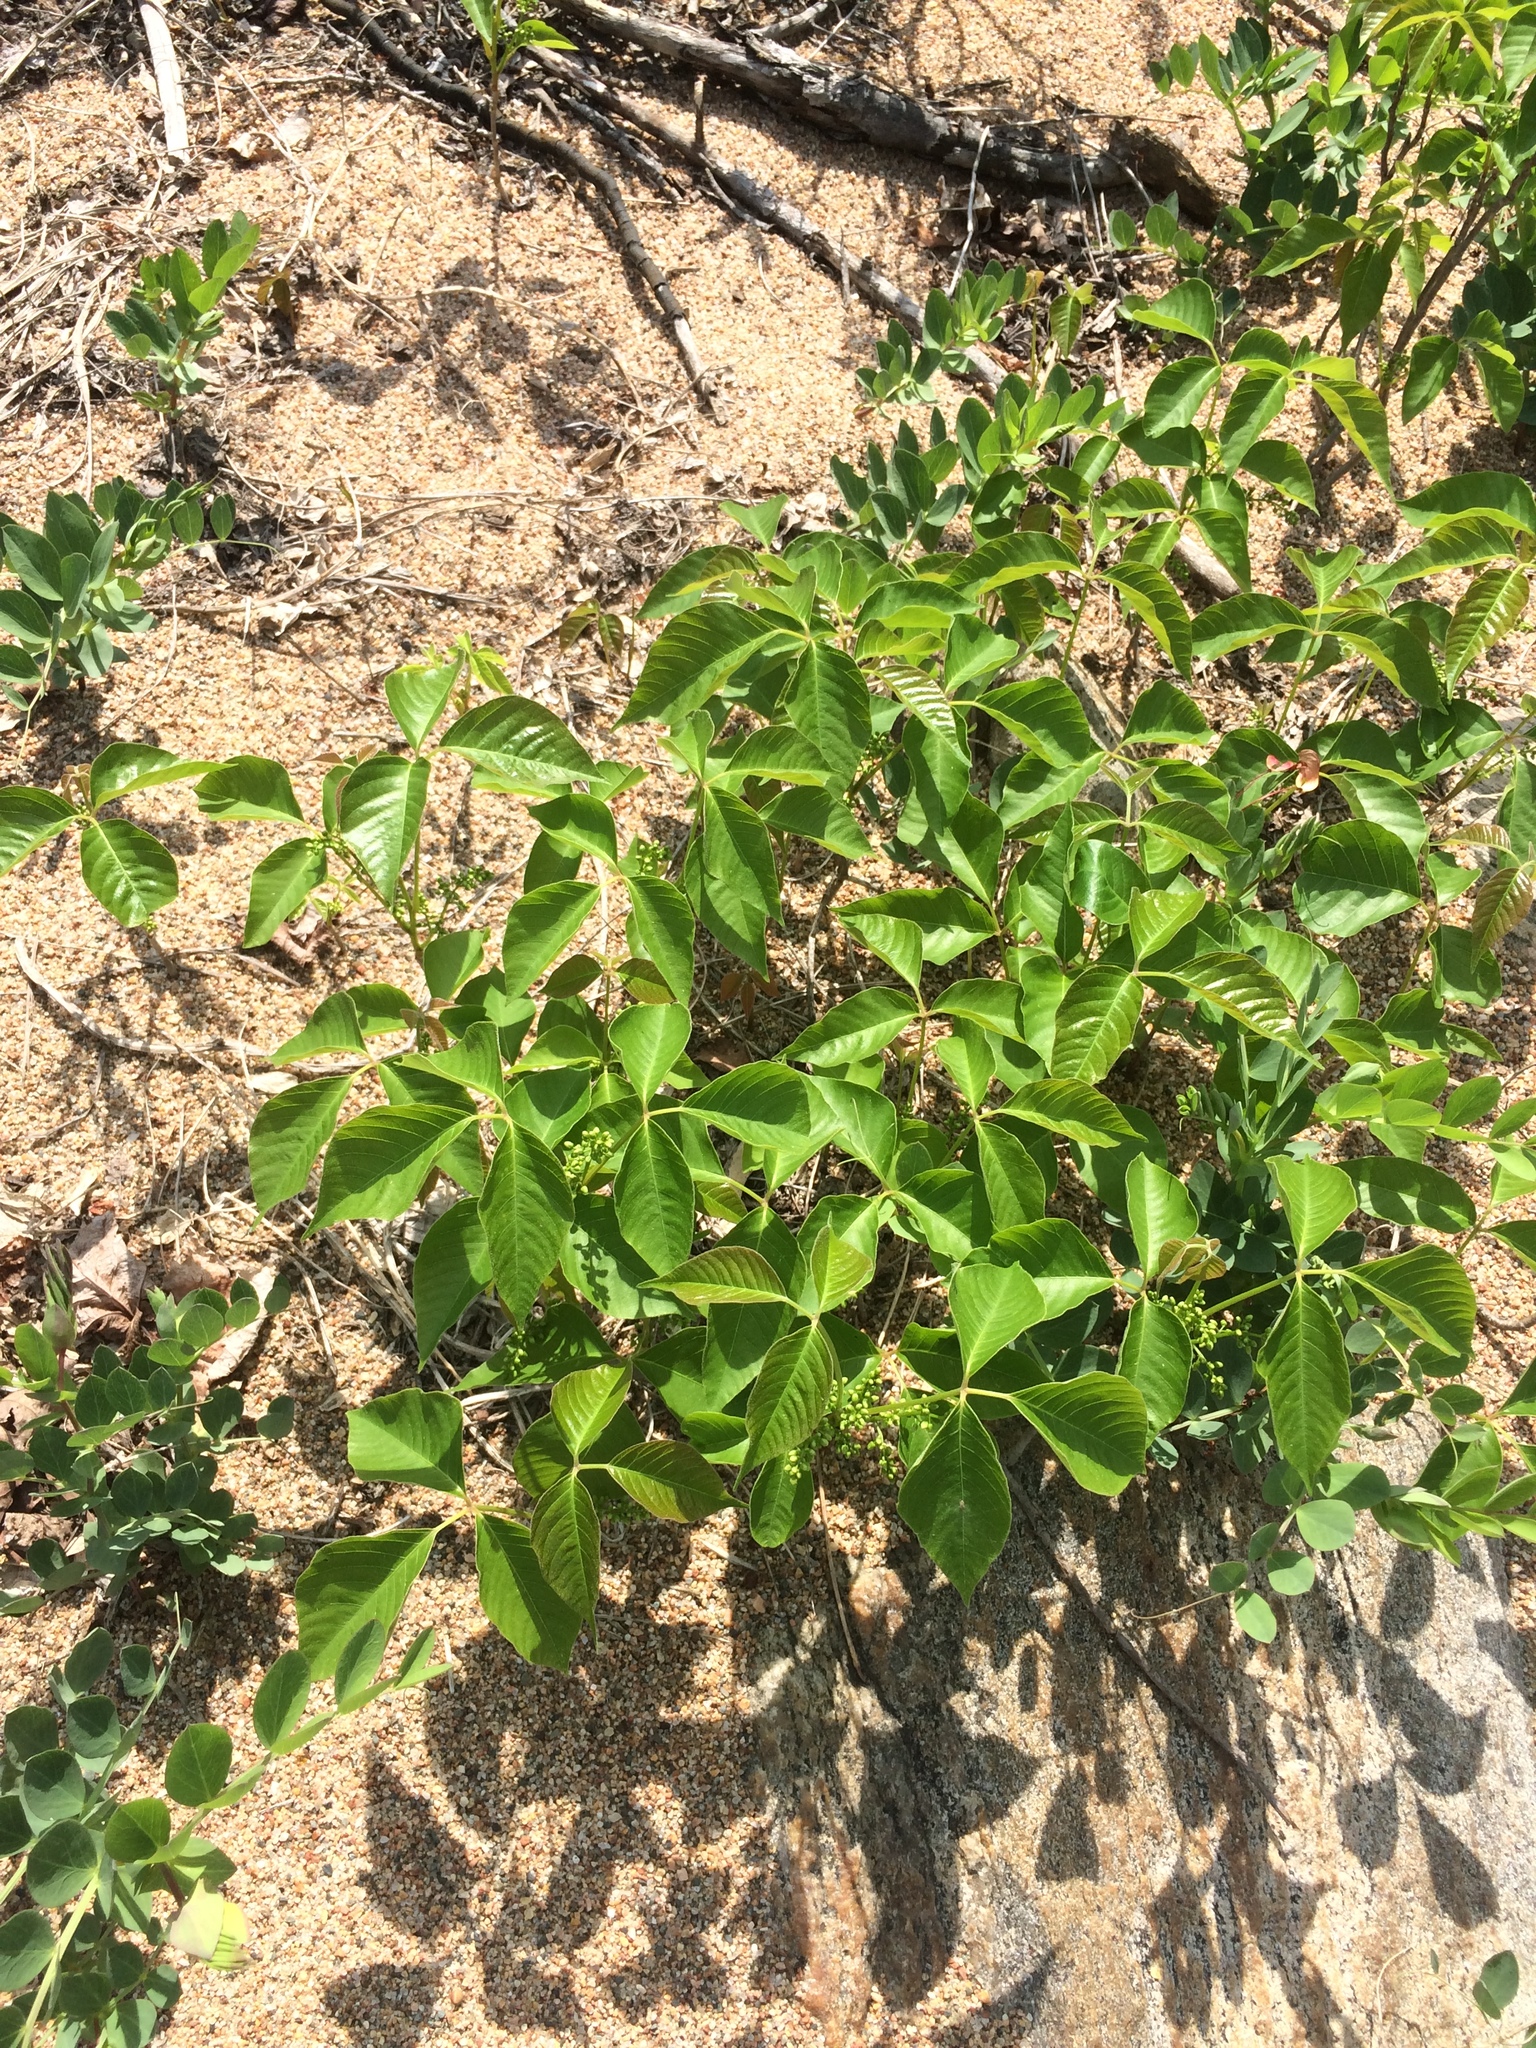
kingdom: Plantae
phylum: Tracheophyta
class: Magnoliopsida
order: Sapindales
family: Anacardiaceae
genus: Toxicodendron
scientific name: Toxicodendron radicans
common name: Poison ivy
